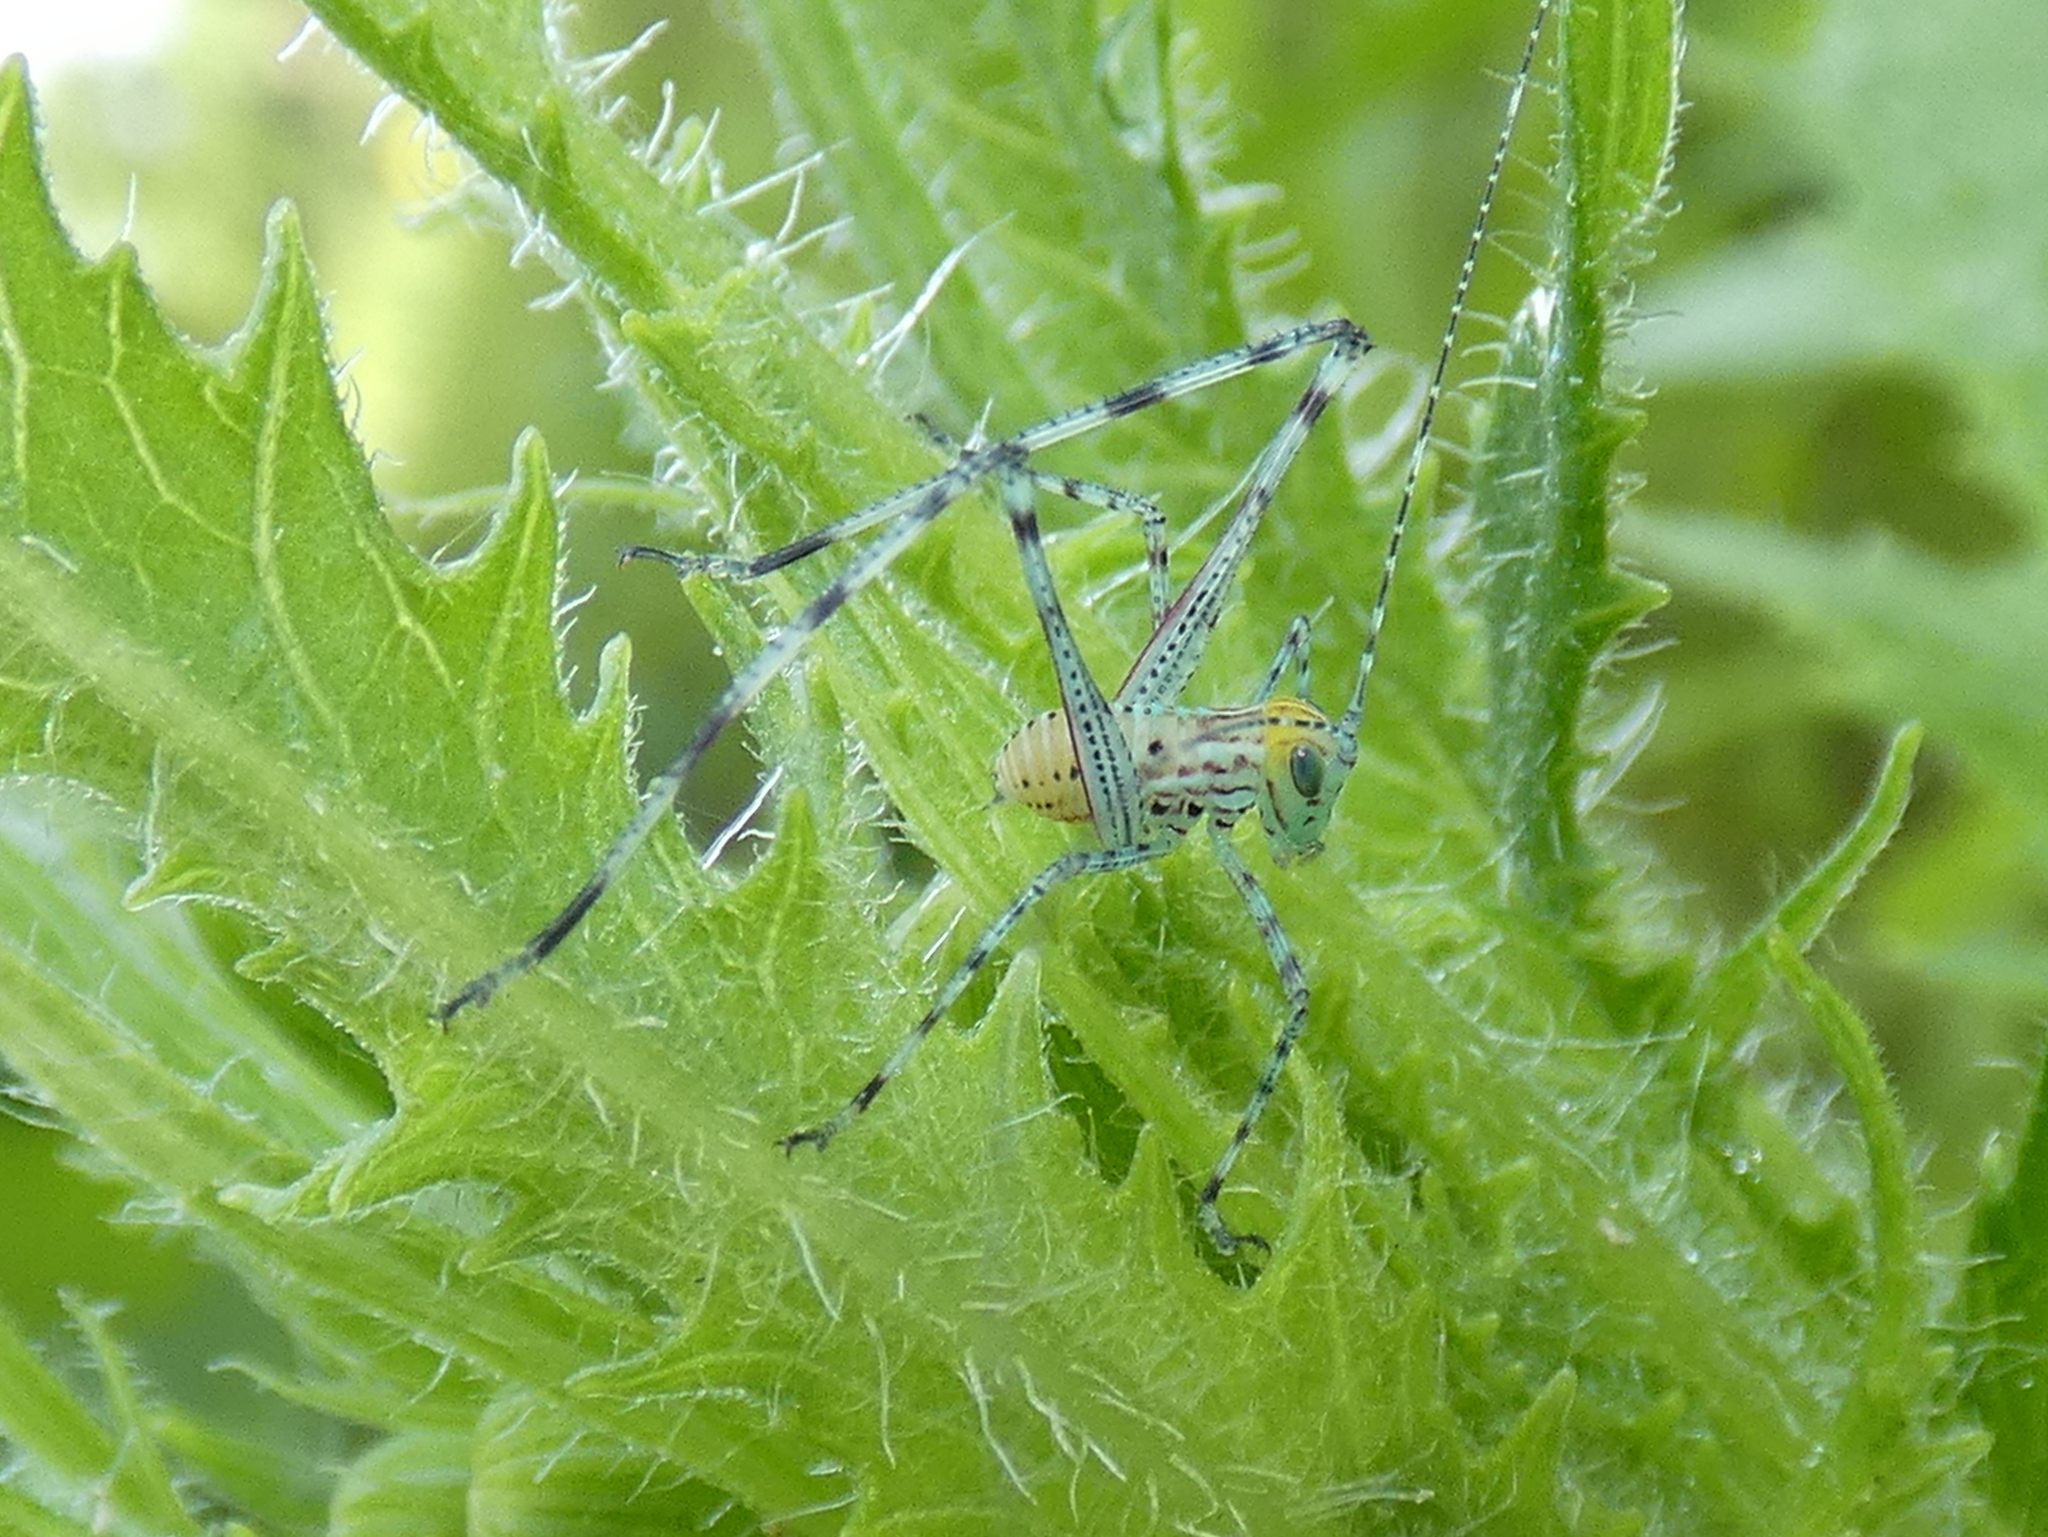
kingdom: Animalia
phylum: Arthropoda
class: Insecta
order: Orthoptera
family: Tettigoniidae
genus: Stilpnochlora
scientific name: Stilpnochlora couloniana
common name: Giant katydid
